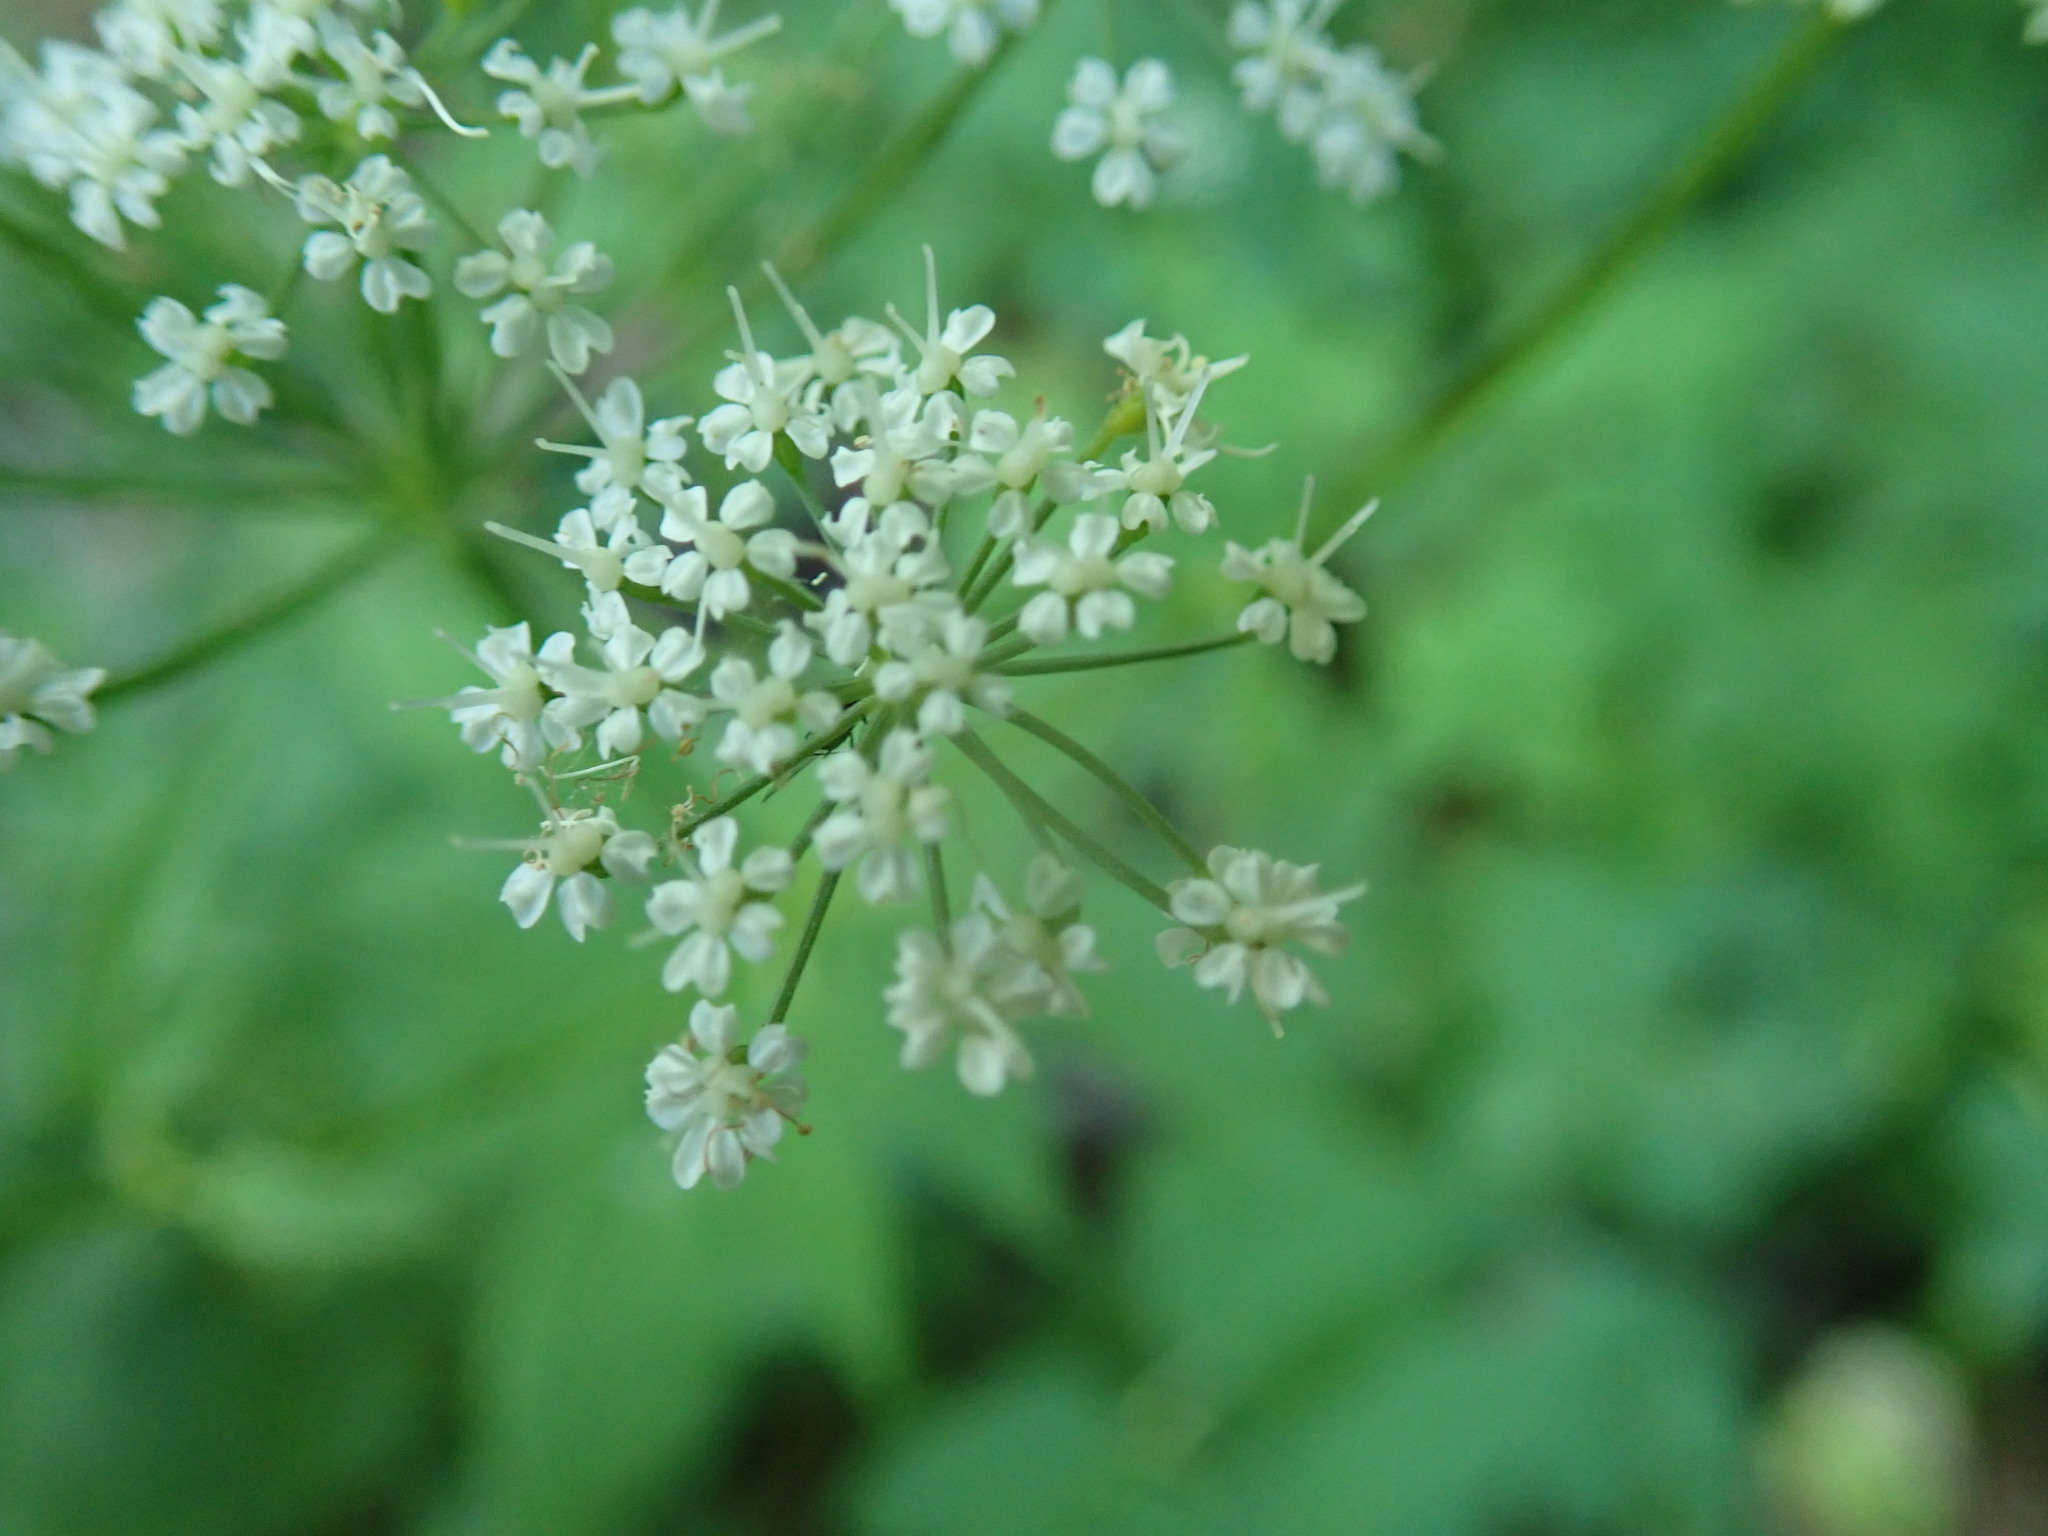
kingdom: Plantae
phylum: Tracheophyta
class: Magnoliopsida
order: Apiales
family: Apiaceae
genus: Aegopodium
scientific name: Aegopodium podagraria
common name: Ground-elder
